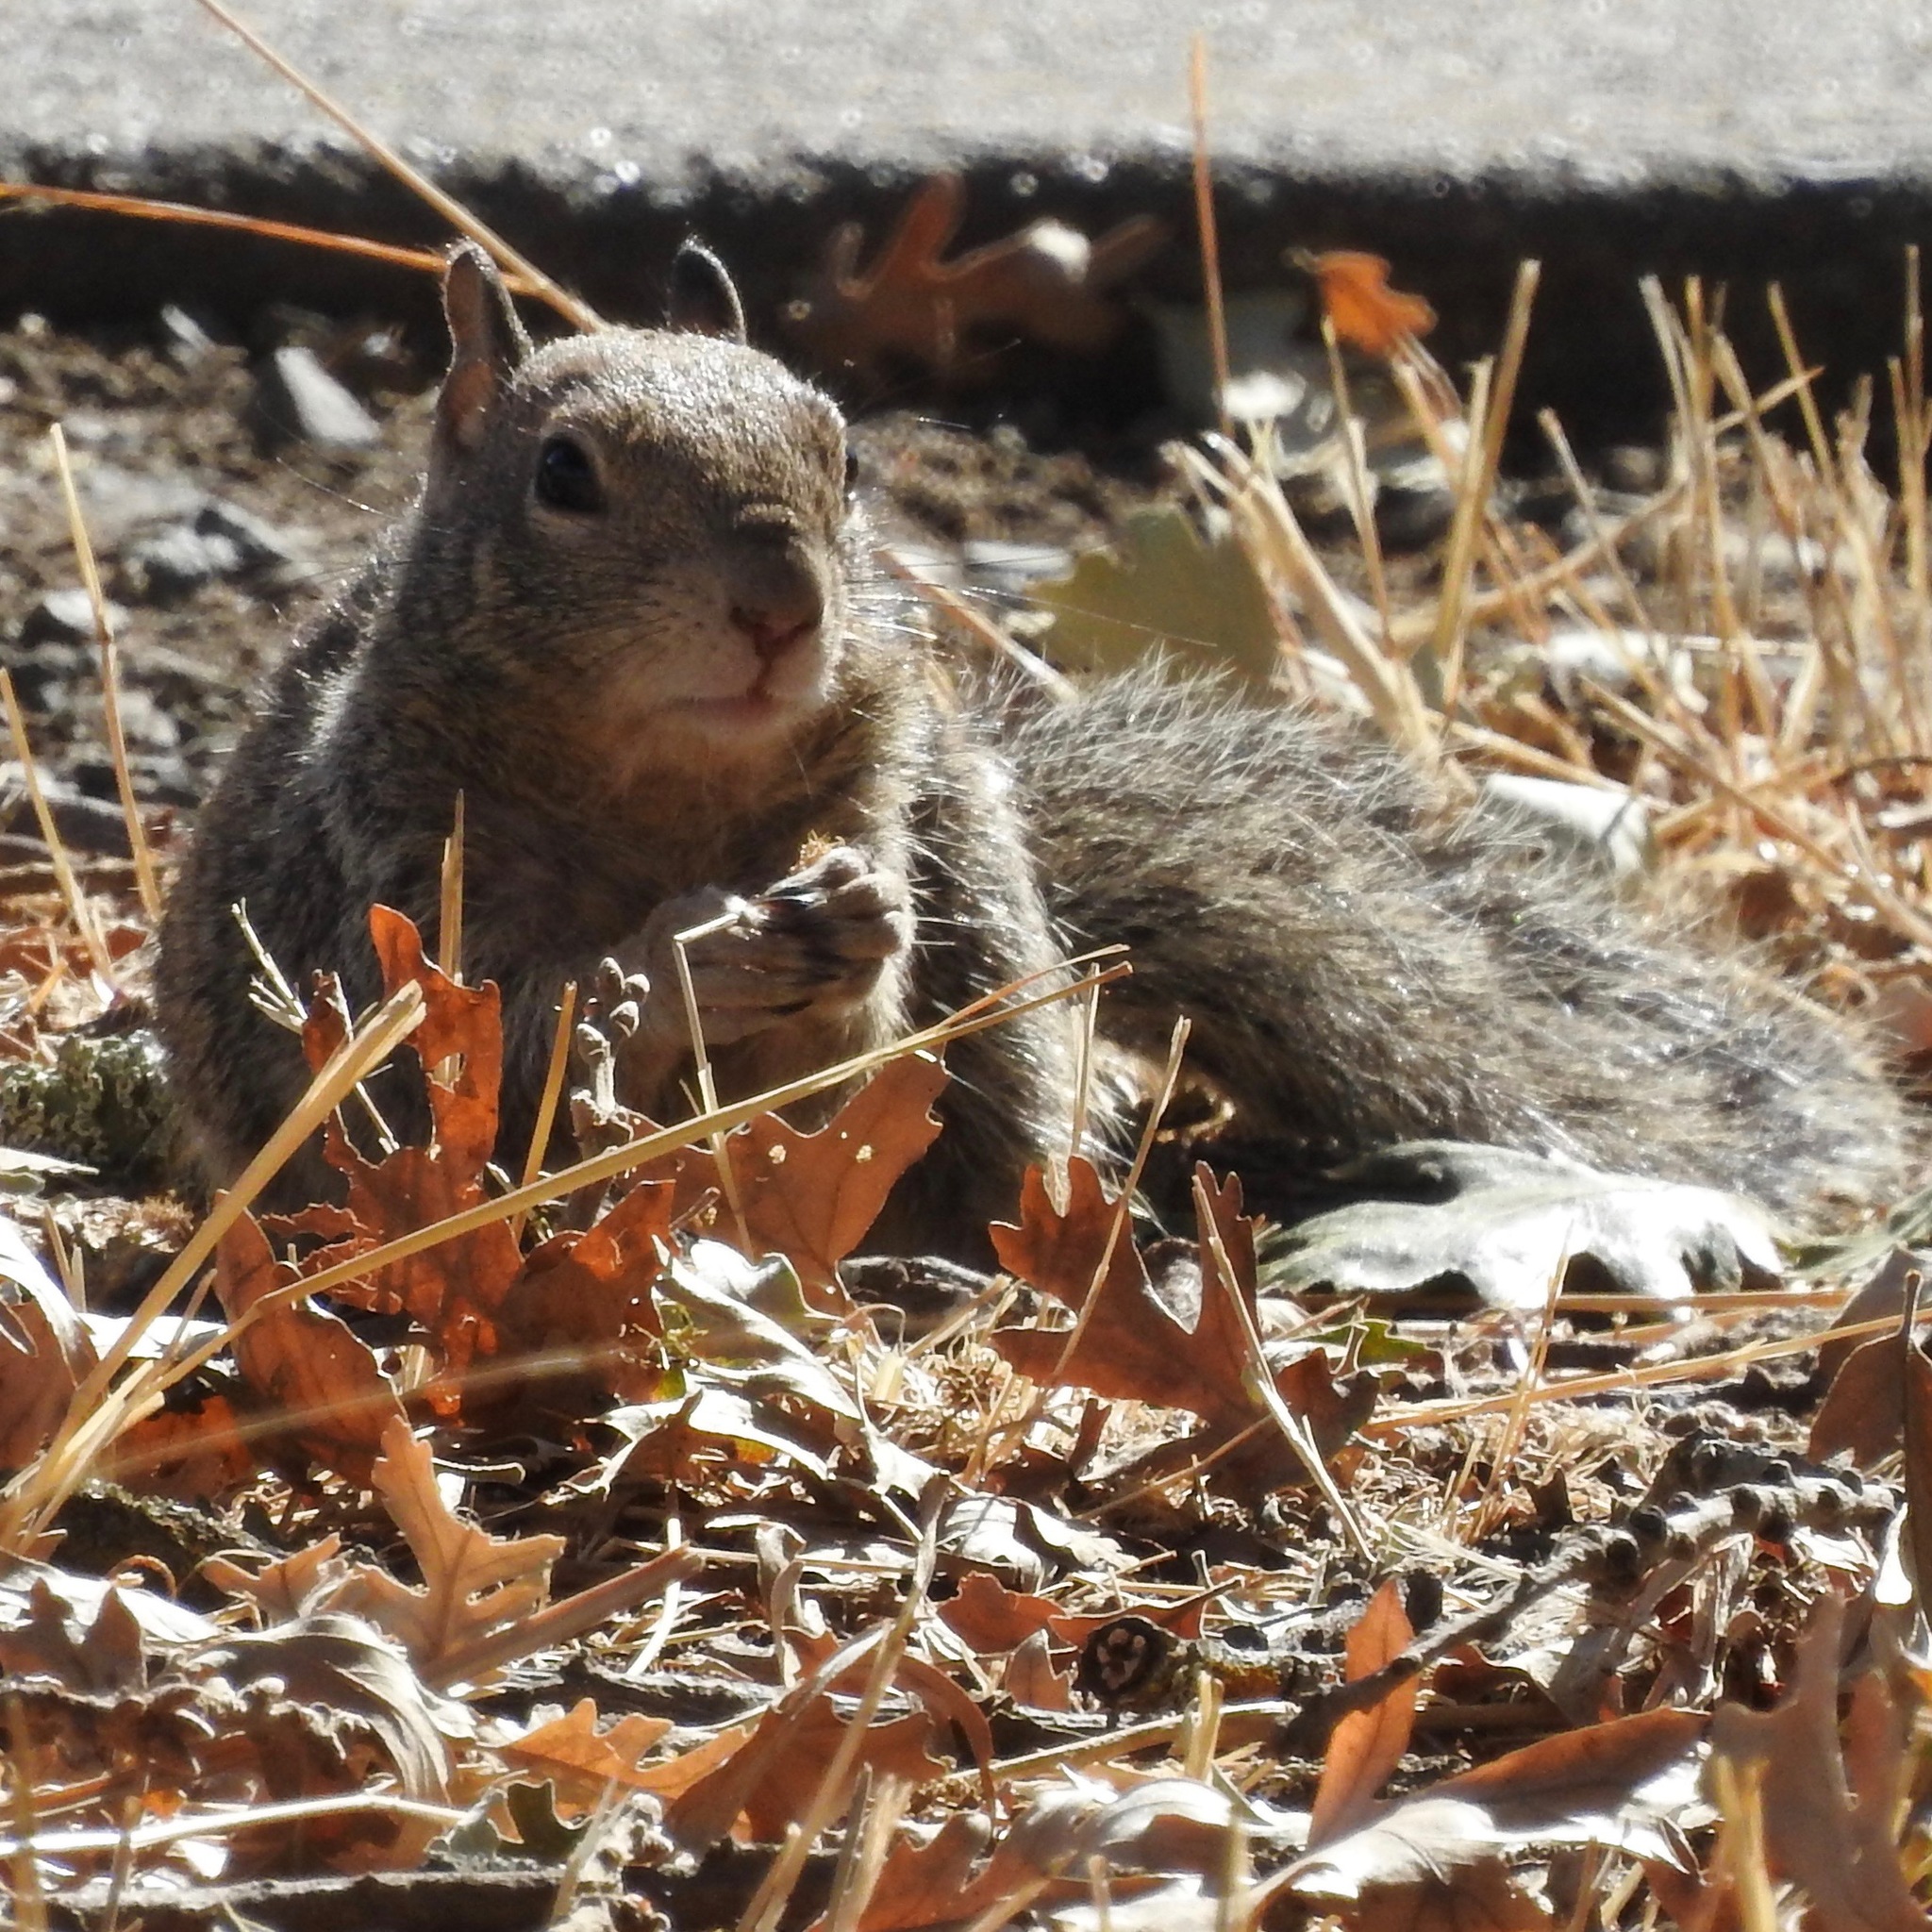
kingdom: Animalia
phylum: Chordata
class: Mammalia
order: Rodentia
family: Sciuridae
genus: Otospermophilus
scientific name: Otospermophilus beecheyi
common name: California ground squirrel
